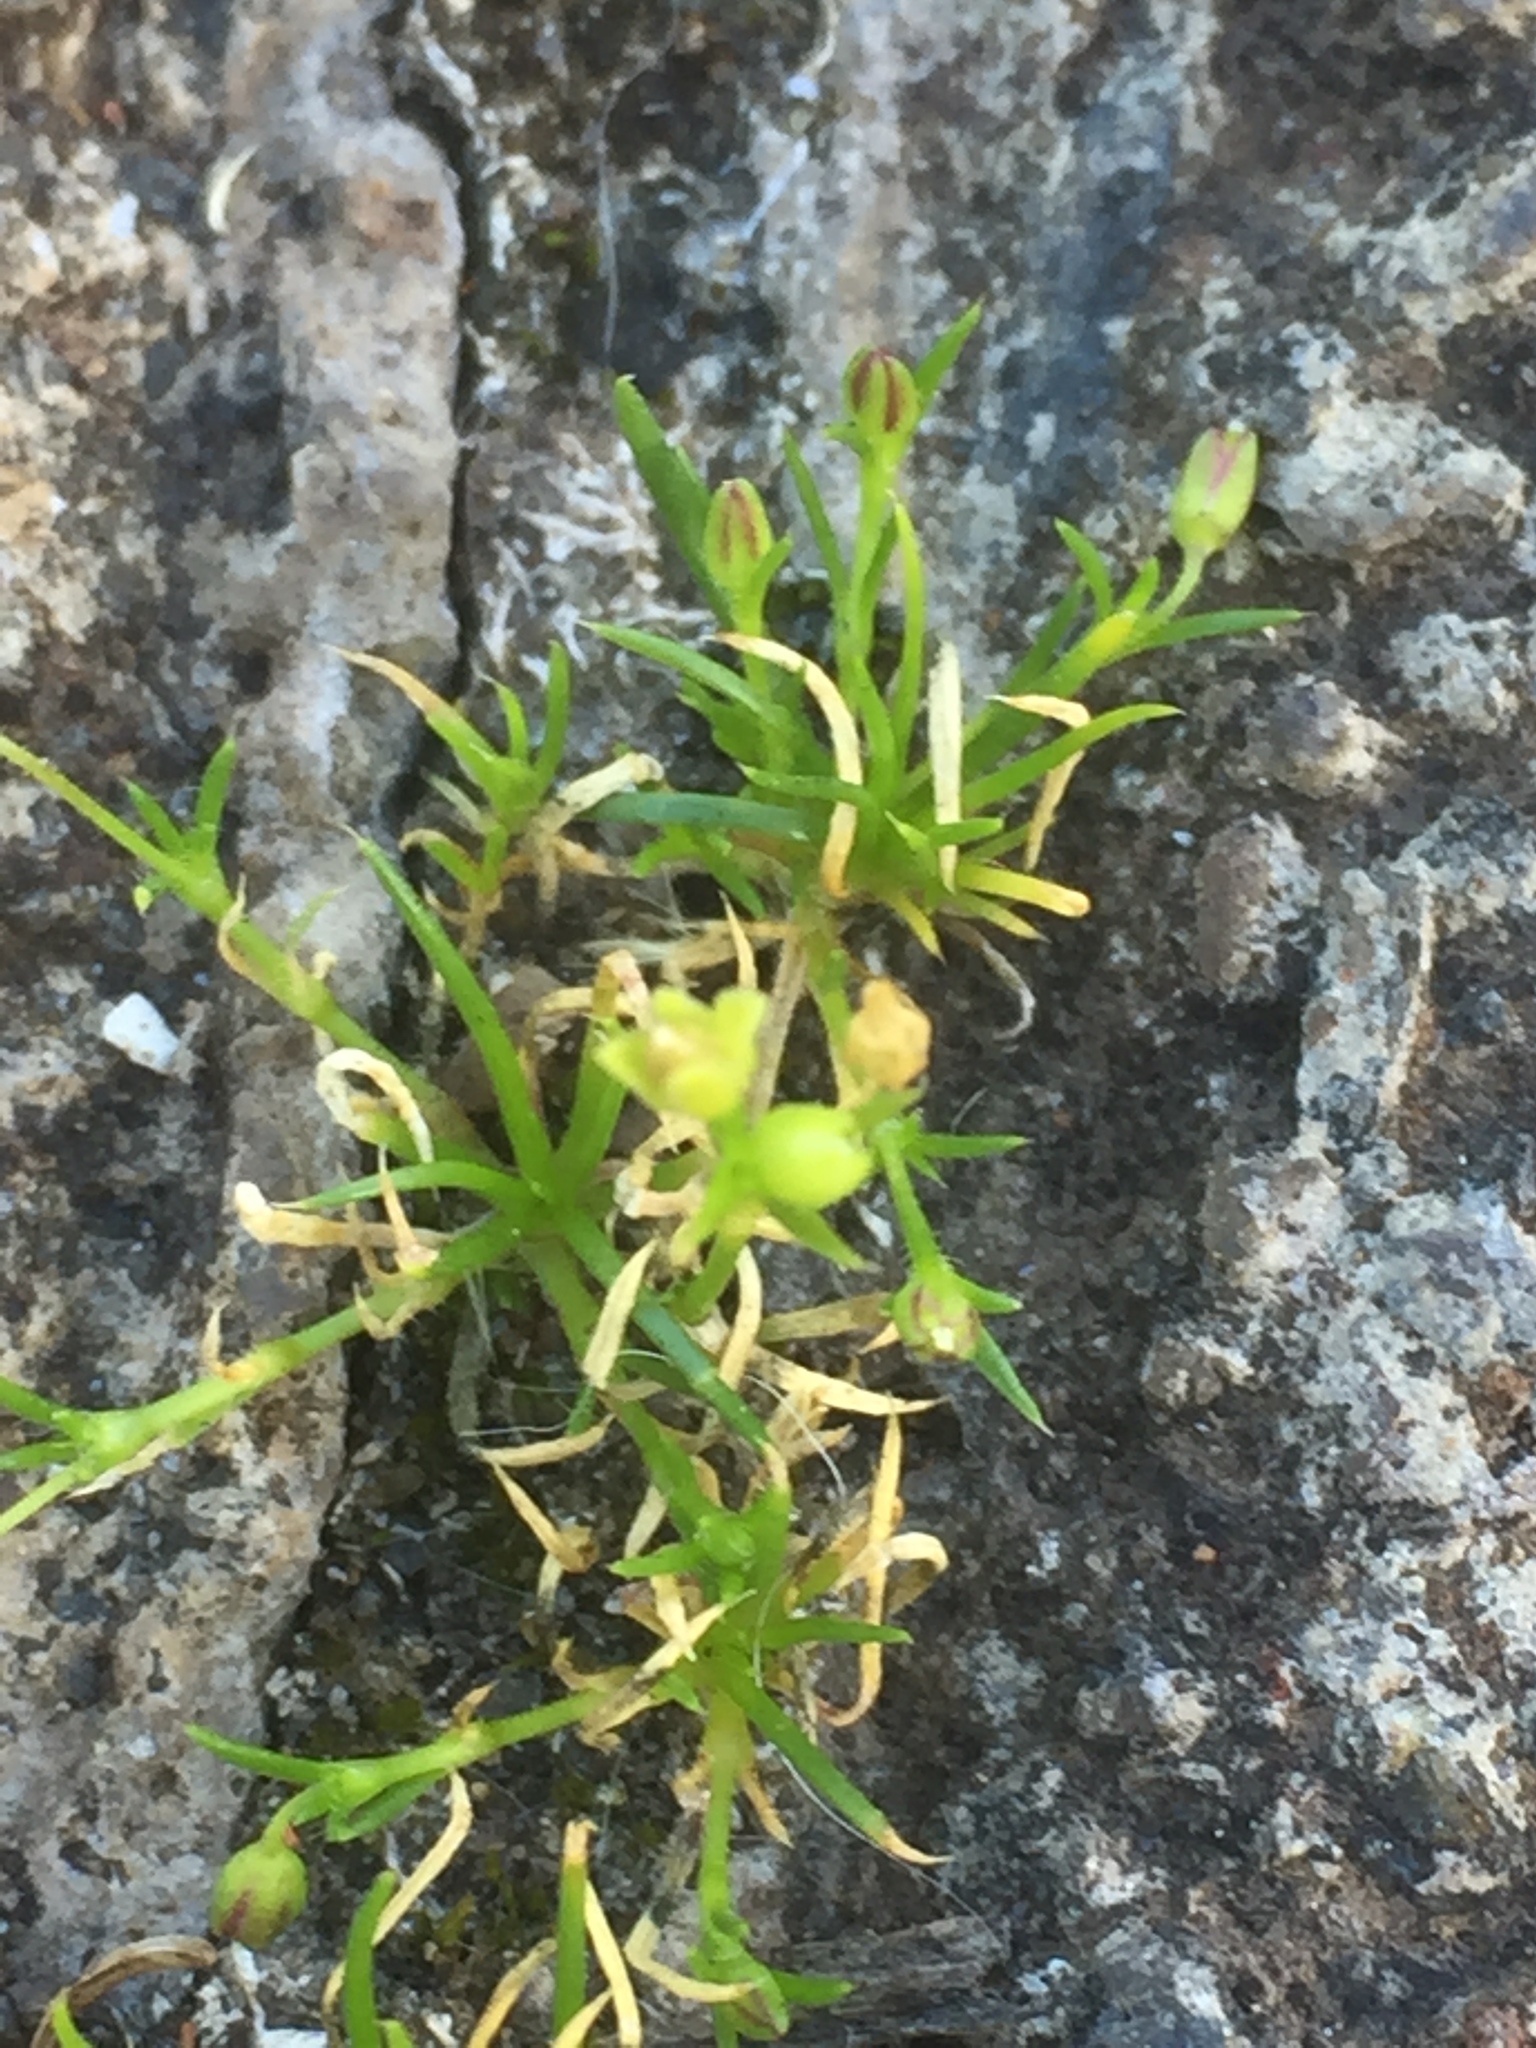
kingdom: Plantae
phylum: Tracheophyta
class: Magnoliopsida
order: Caryophyllales
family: Caryophyllaceae
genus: Sagina
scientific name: Sagina procumbens
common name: Procumbent pearlwort
